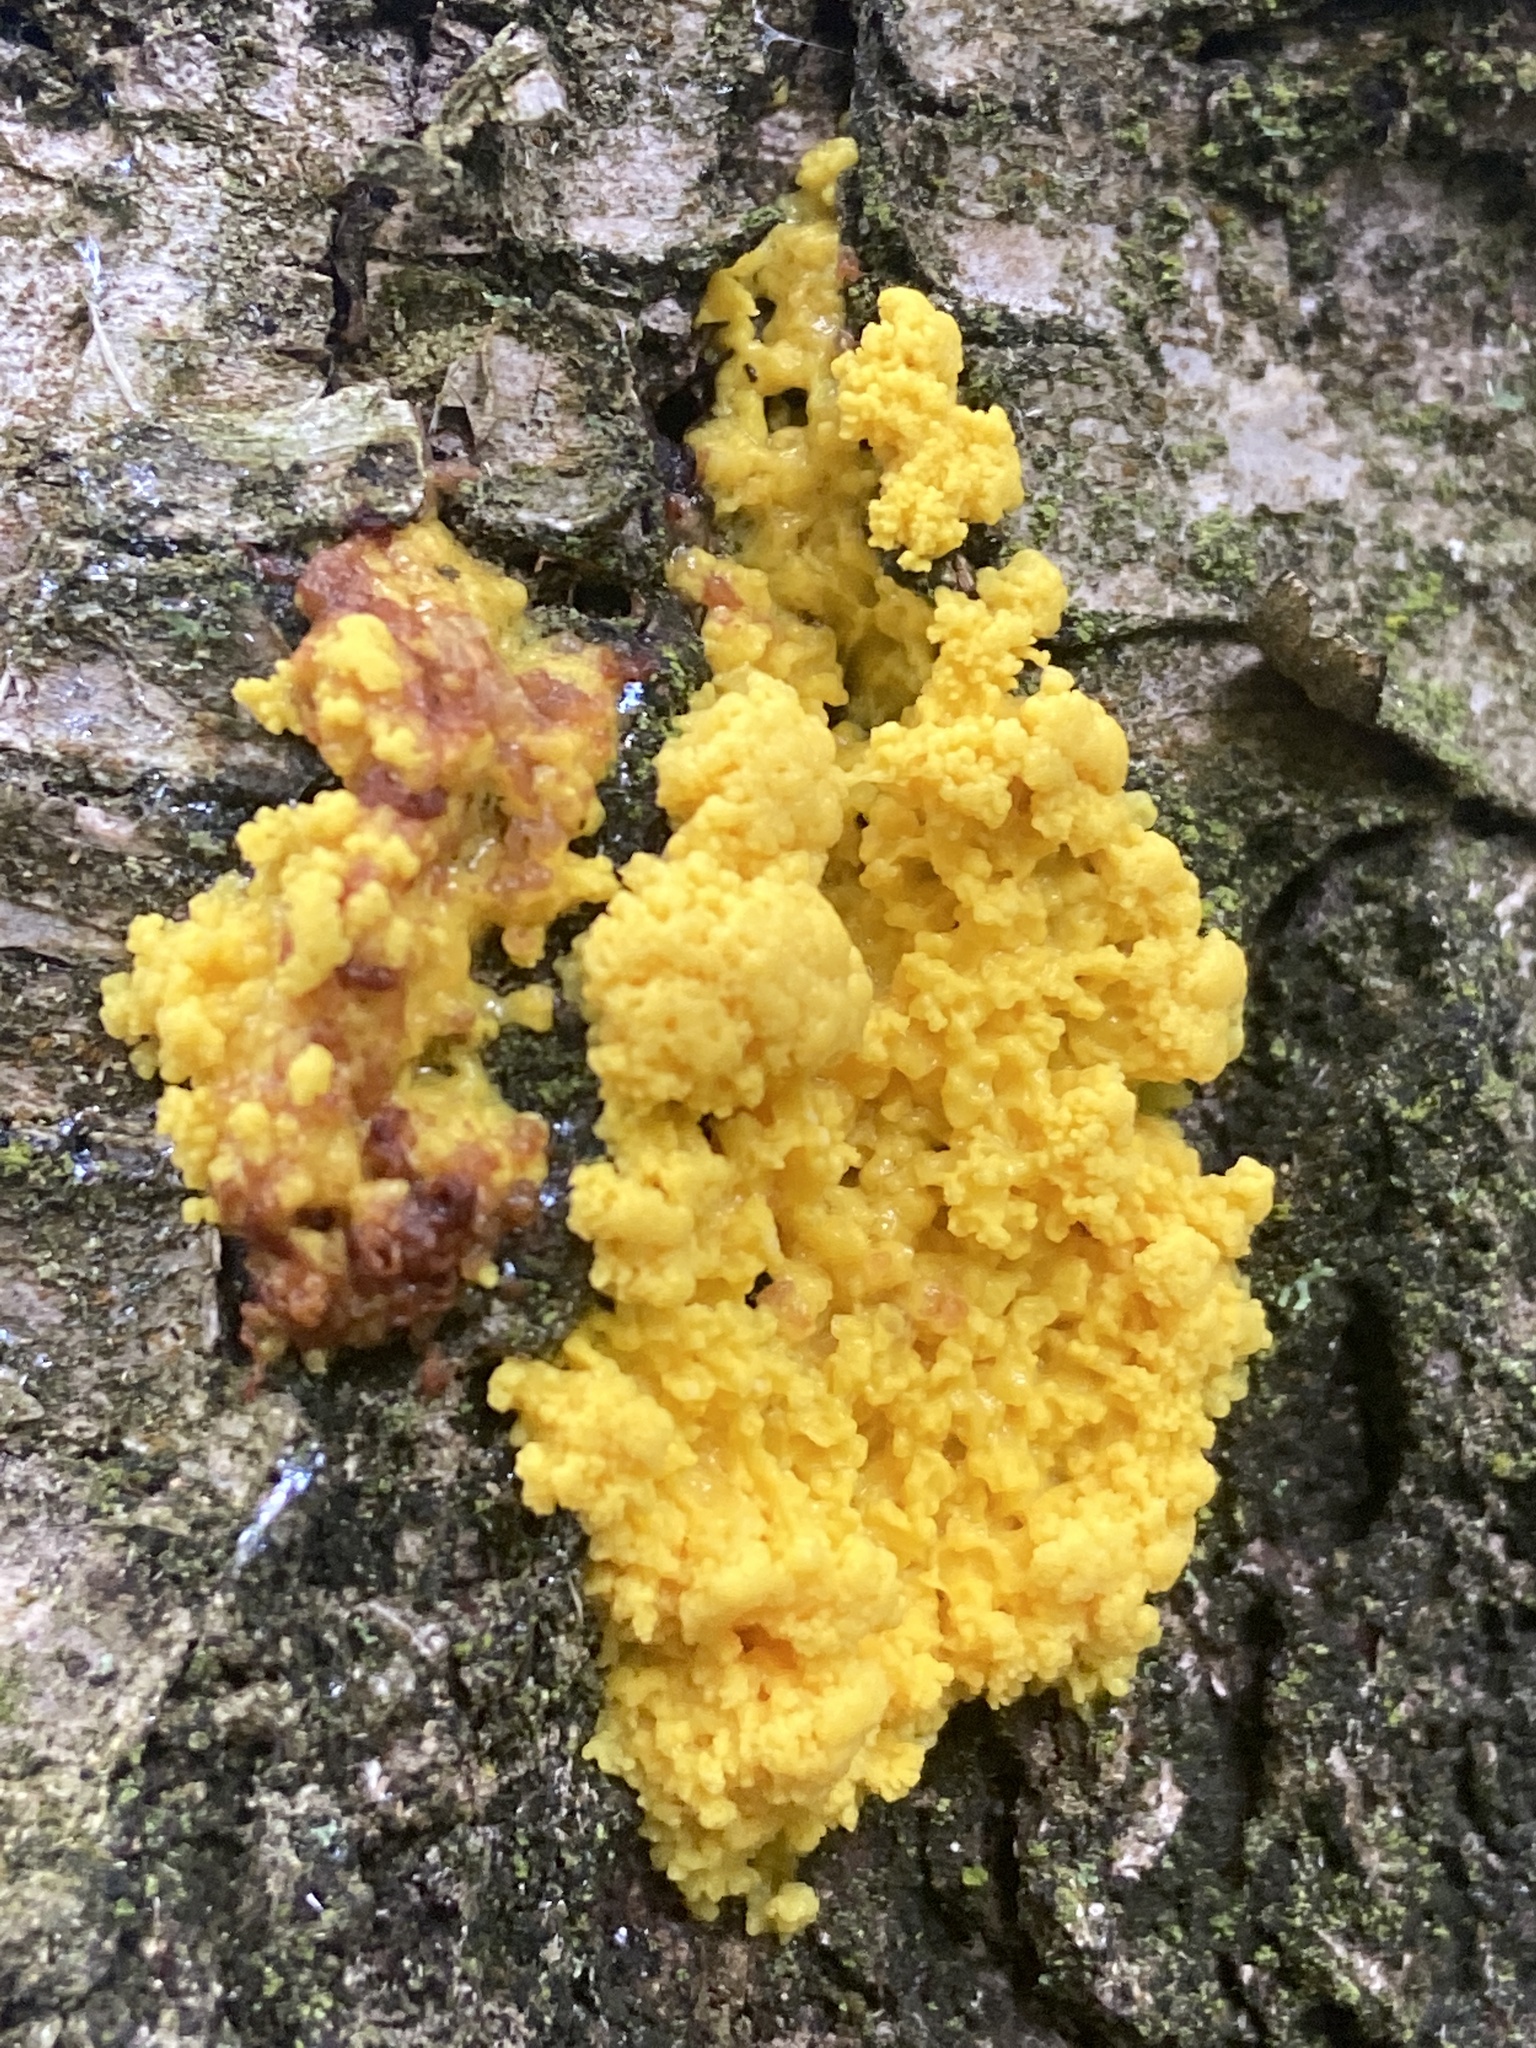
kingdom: Protozoa
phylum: Mycetozoa
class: Myxomycetes
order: Physarales
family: Physaraceae
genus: Fuligo
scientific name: Fuligo septica
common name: Dog vomit slime mold
